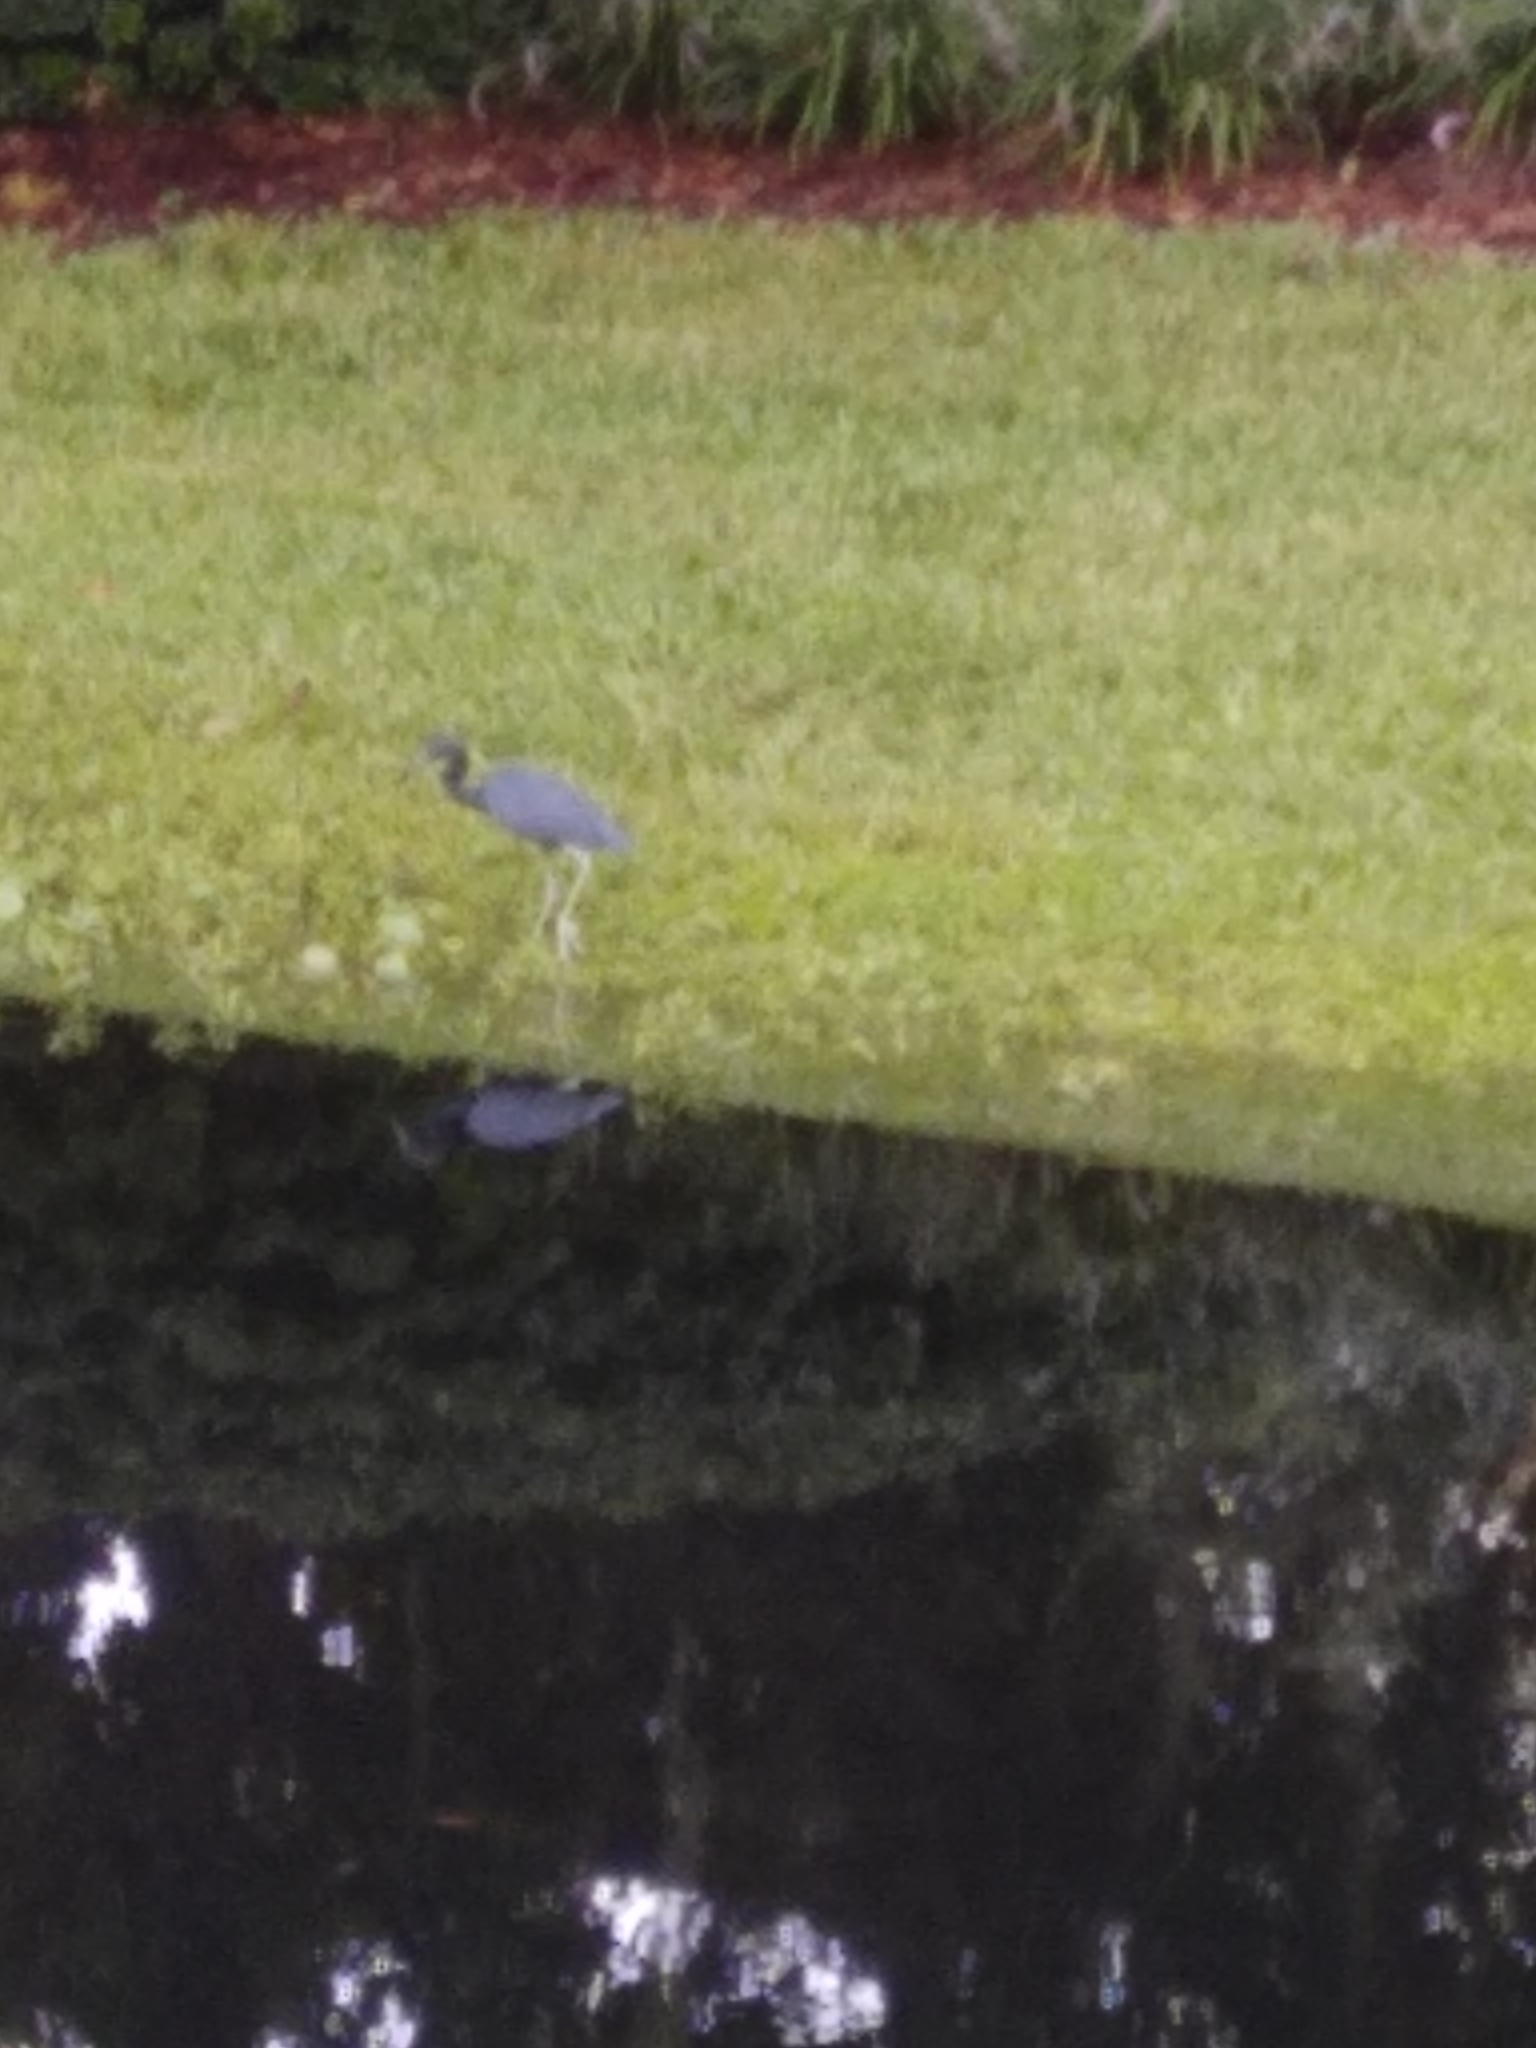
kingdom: Animalia
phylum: Chordata
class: Aves
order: Pelecaniformes
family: Ardeidae
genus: Egretta
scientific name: Egretta caerulea
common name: Little blue heron
